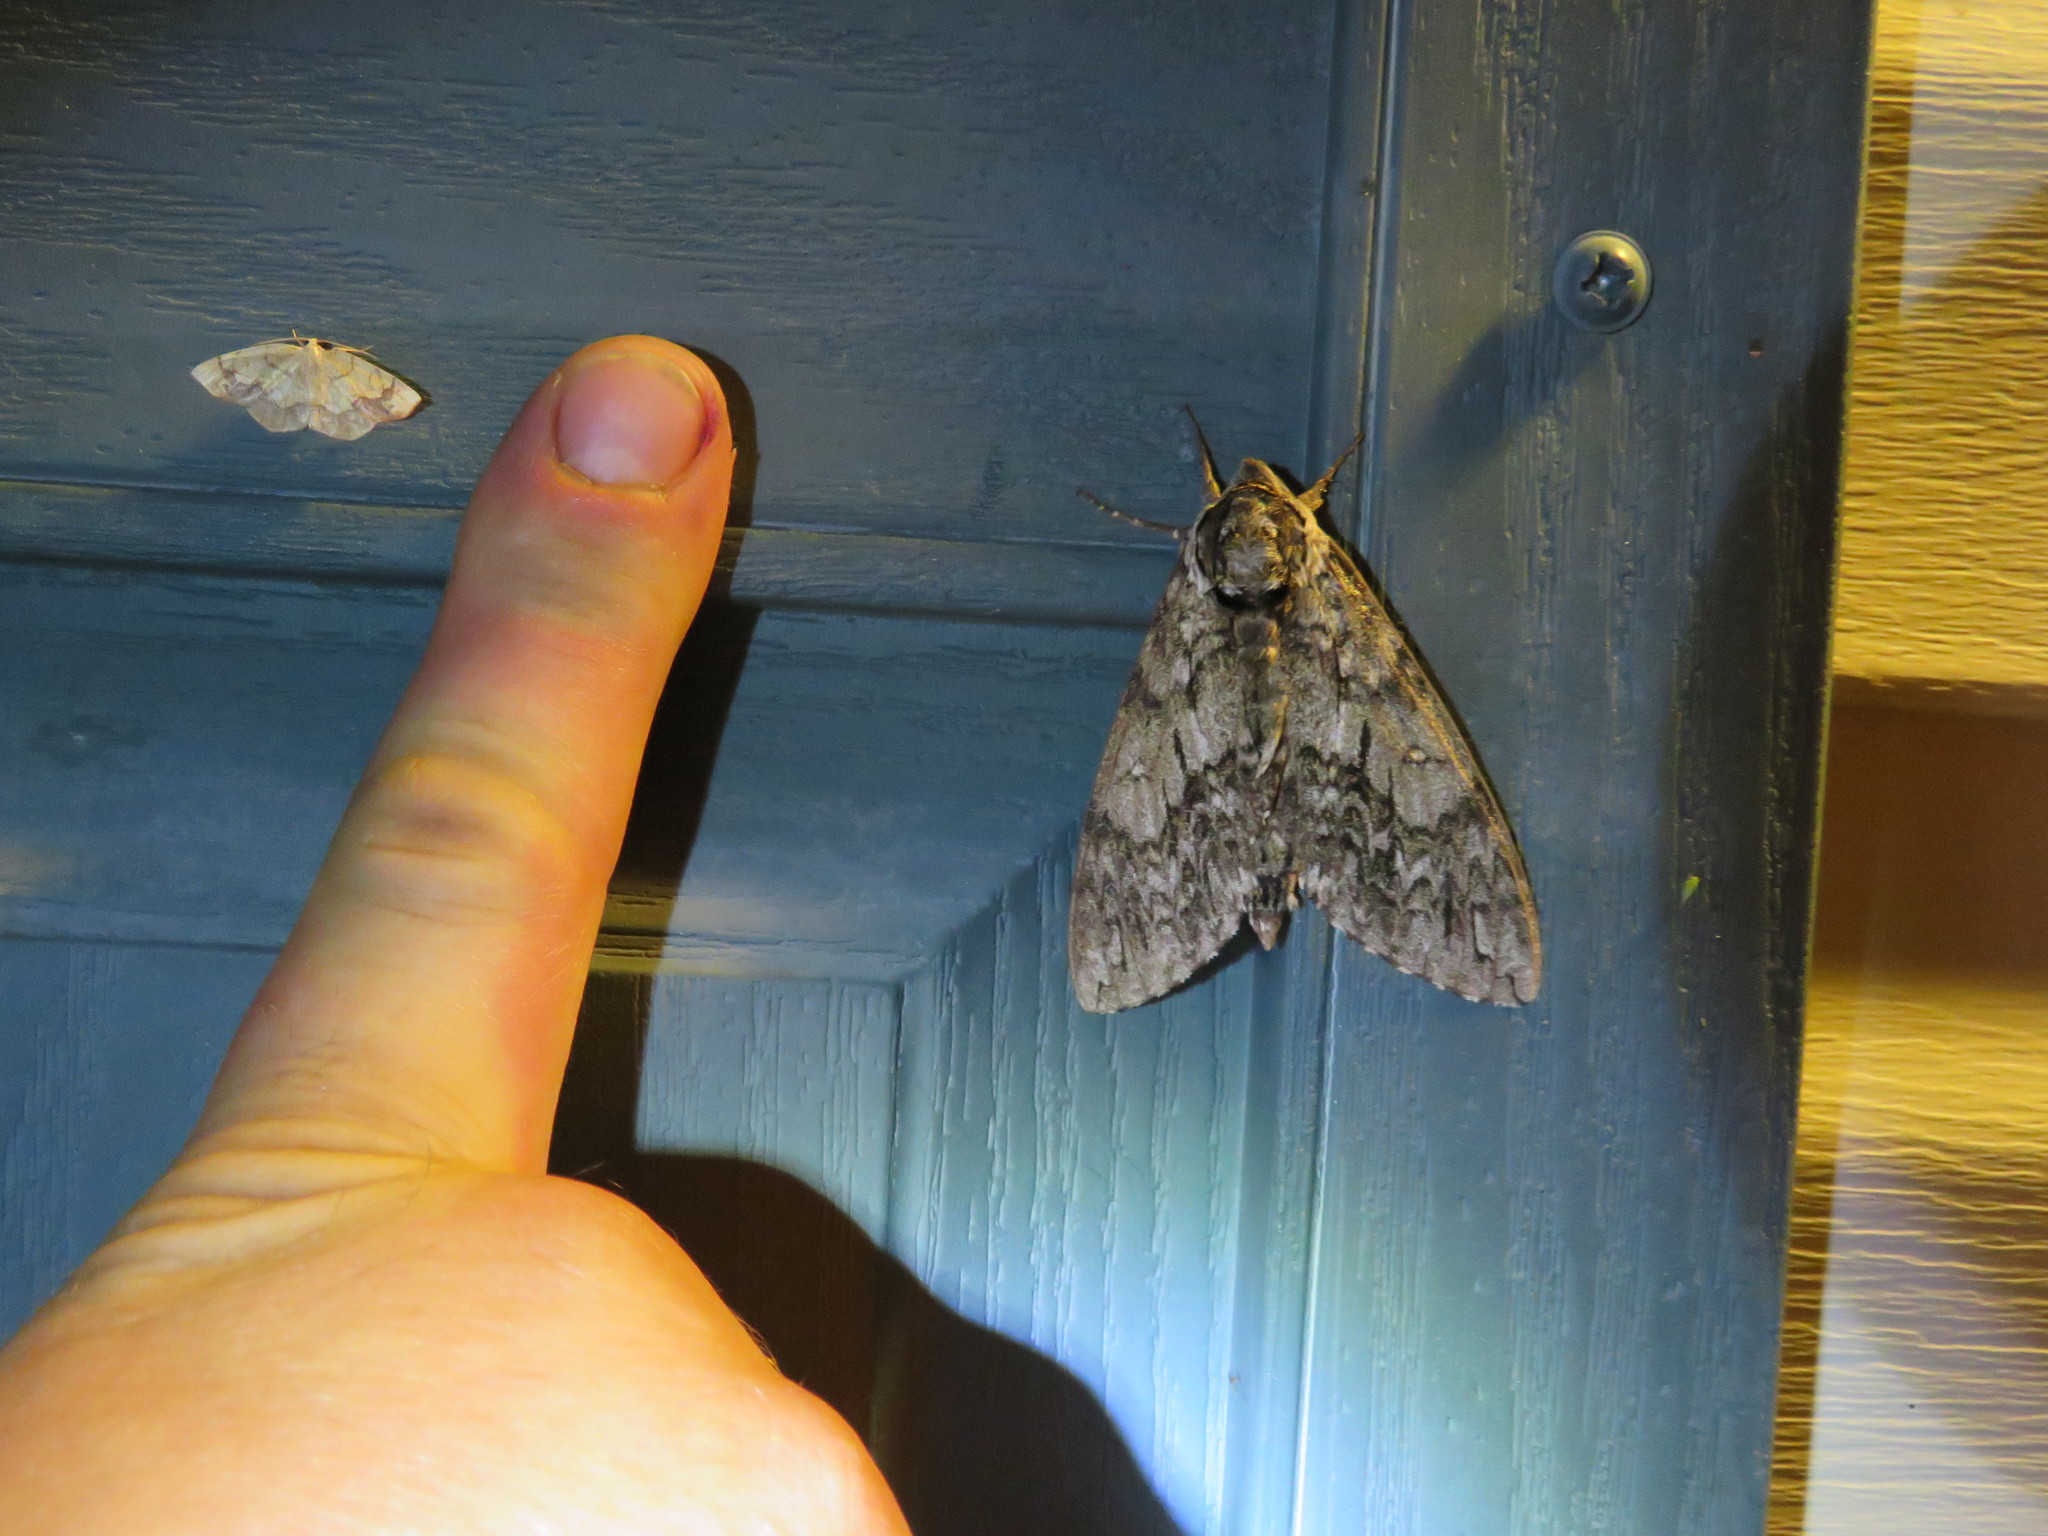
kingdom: Animalia
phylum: Arthropoda
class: Insecta
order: Lepidoptera
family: Sphingidae
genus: Ceratomia
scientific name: Ceratomia undulosa
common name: Waved sphinx
